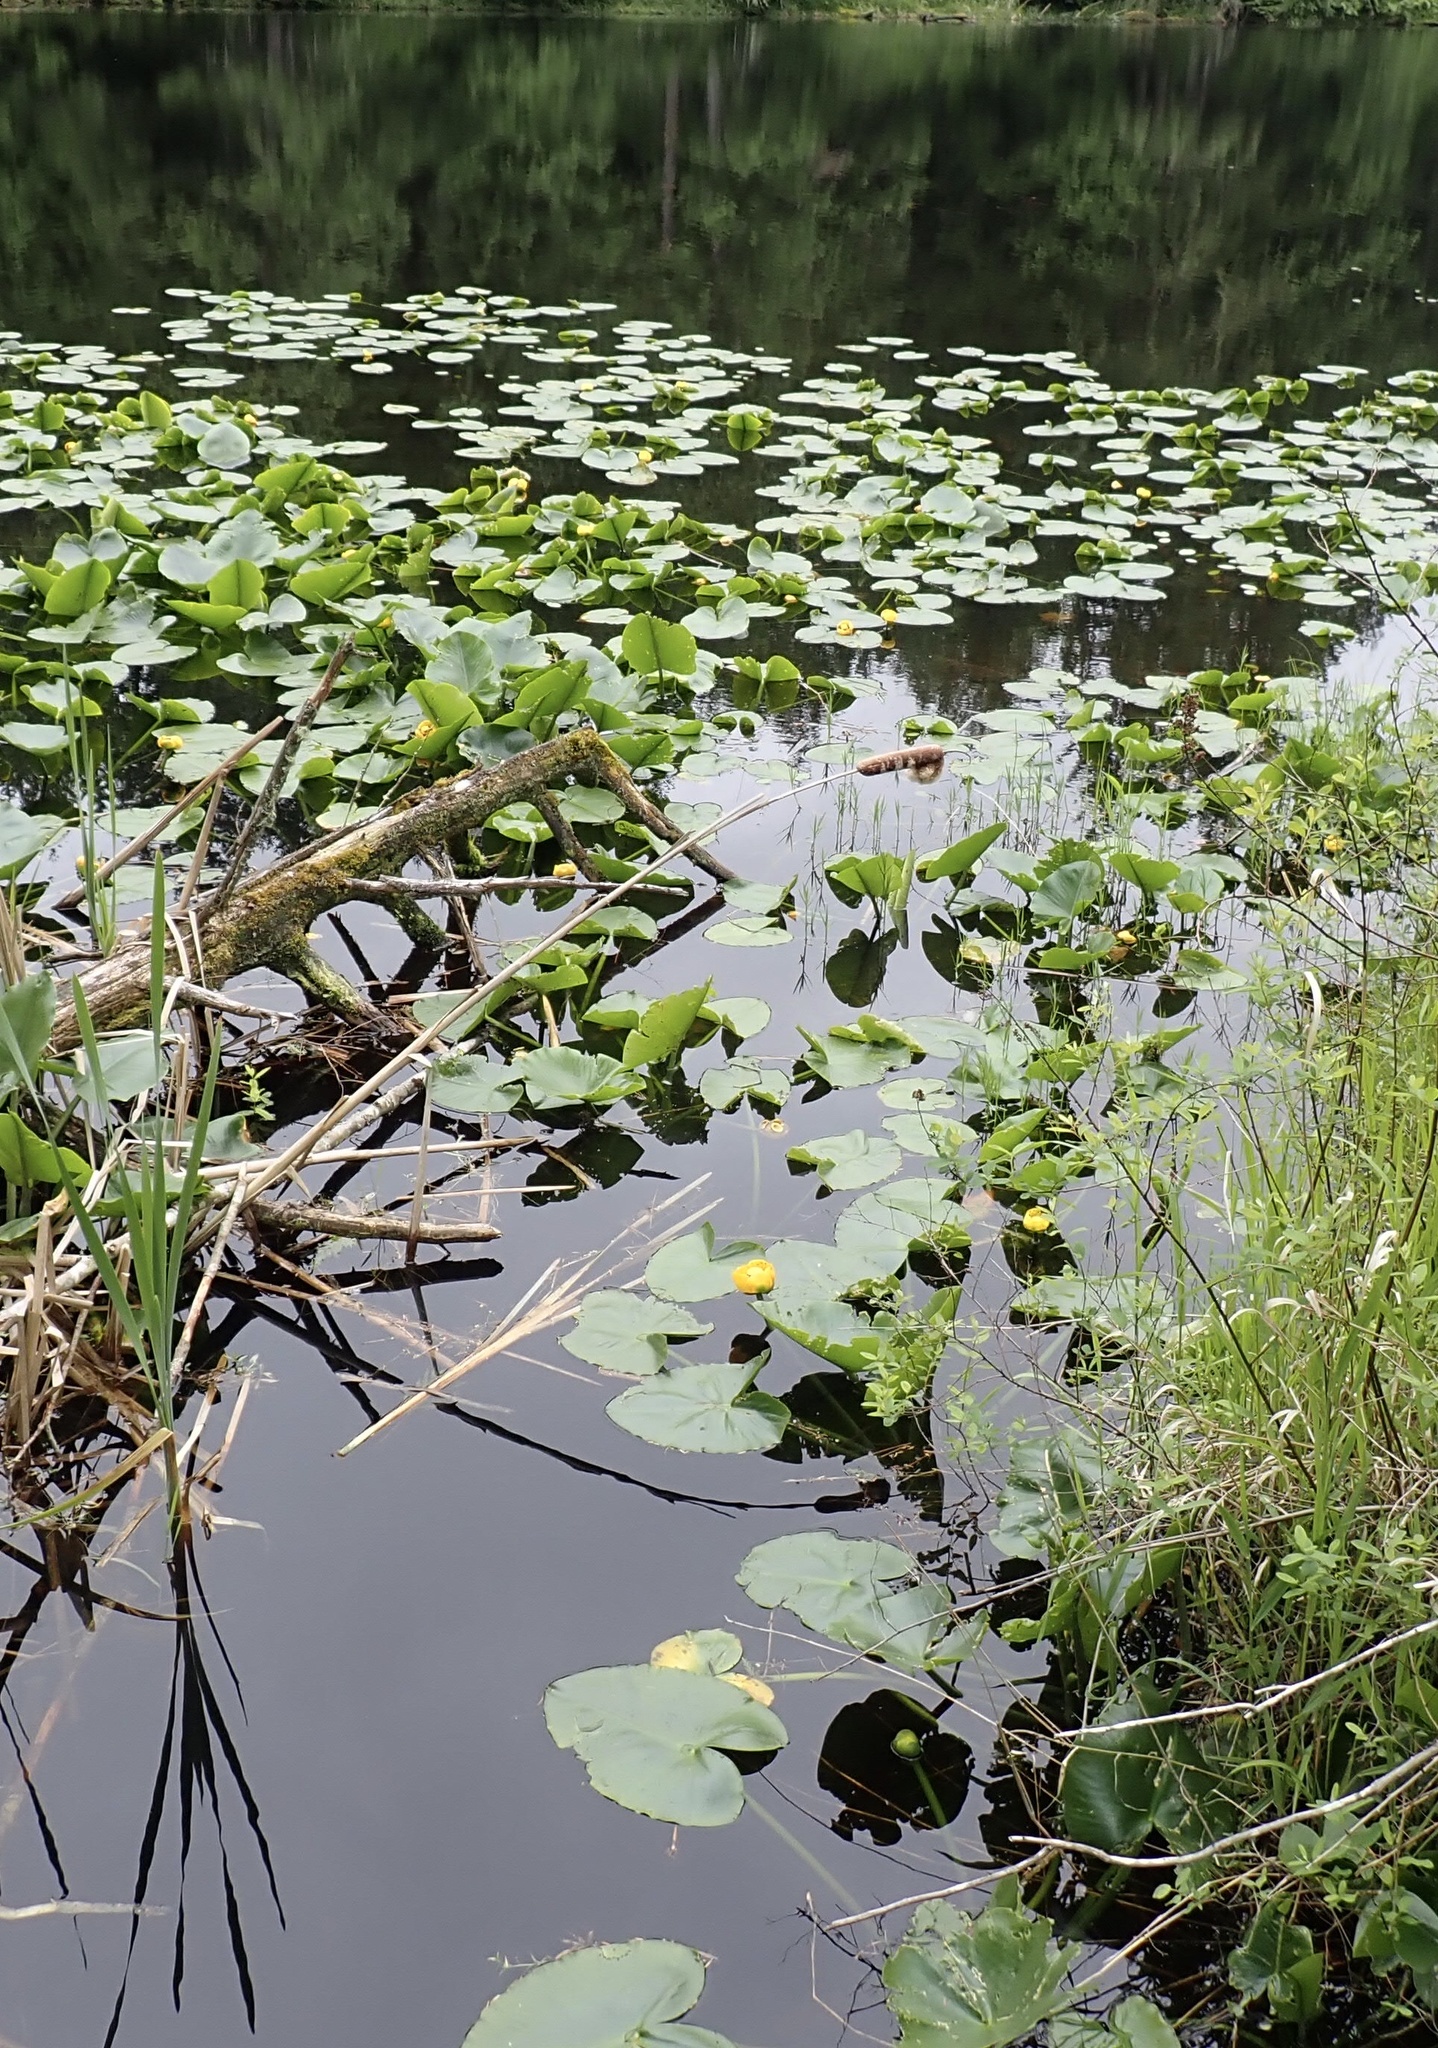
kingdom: Plantae
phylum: Tracheophyta
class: Magnoliopsida
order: Nymphaeales
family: Nymphaeaceae
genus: Nuphar
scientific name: Nuphar polysepala
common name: Rocky mountain cow-lily
